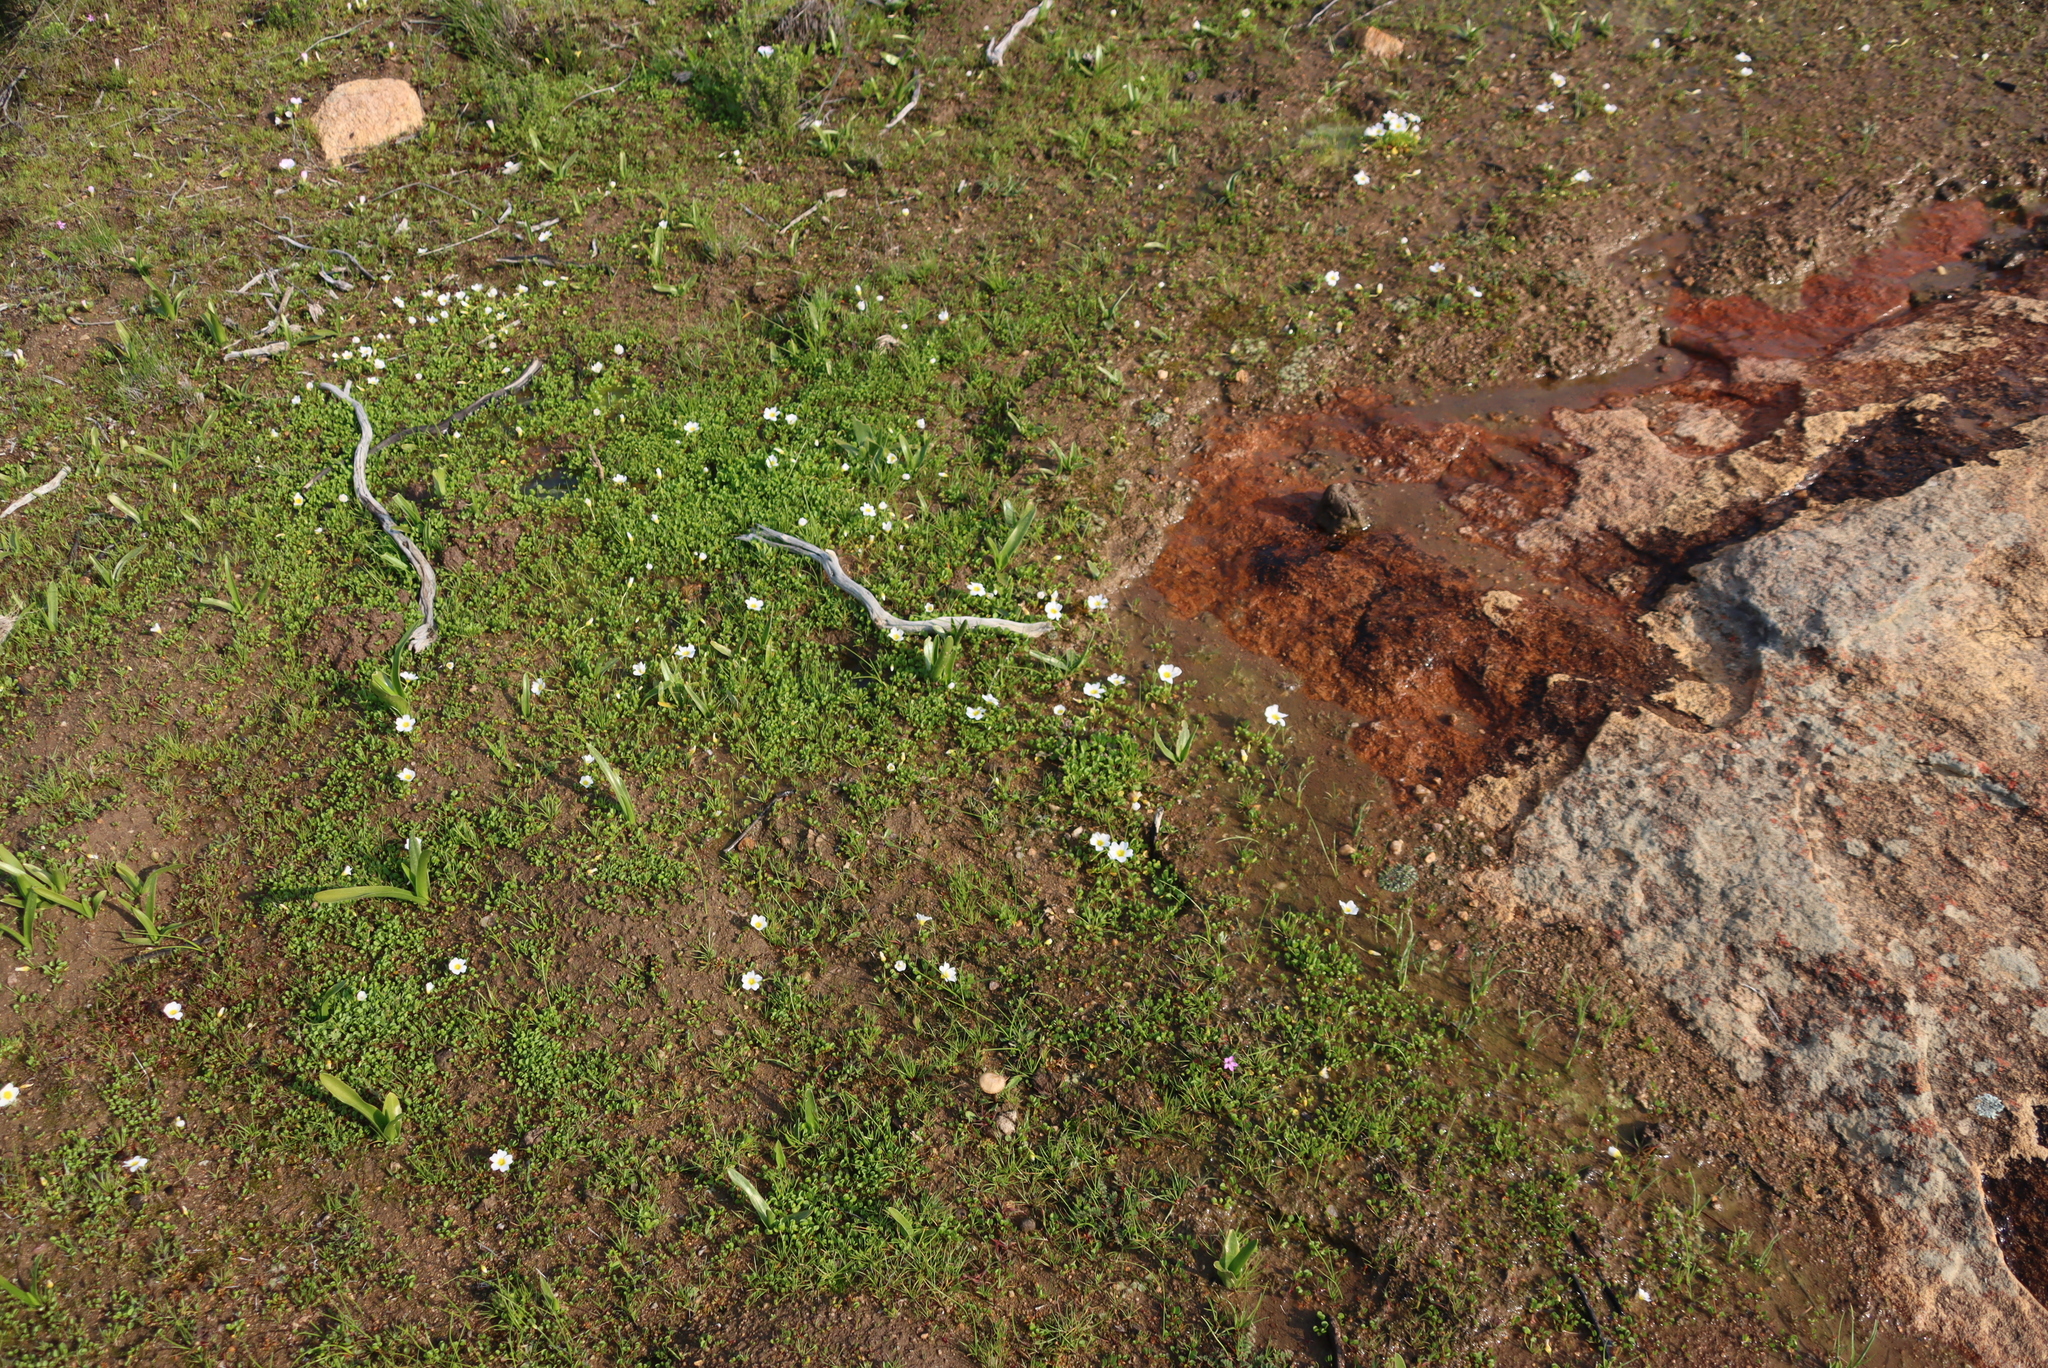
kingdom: Plantae
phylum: Tracheophyta
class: Magnoliopsida
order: Oxalidales
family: Oxalidaceae
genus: Oxalis
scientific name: Oxalis dregei
